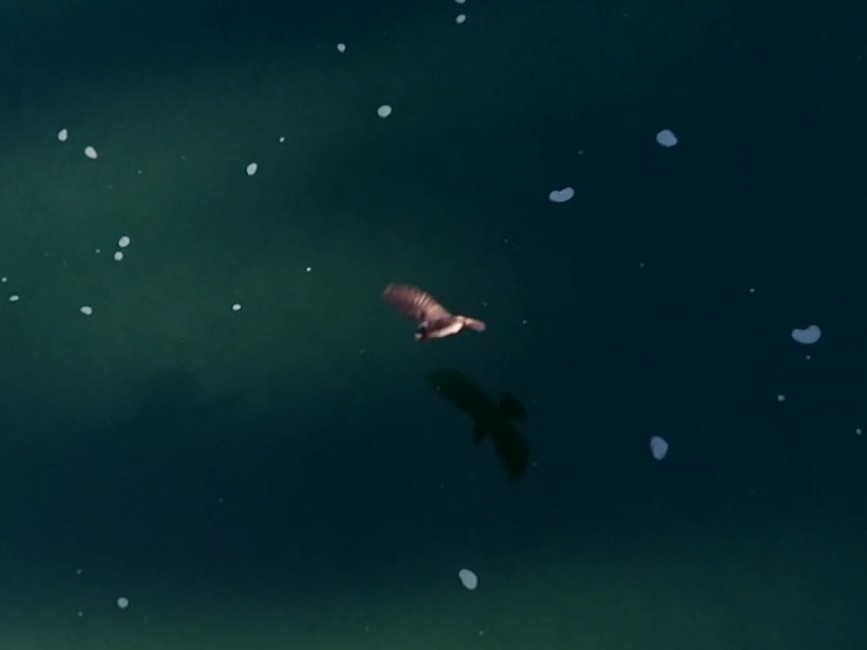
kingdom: Animalia
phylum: Chordata
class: Aves
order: Passeriformes
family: Hirundinidae
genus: Petrochelidon
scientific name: Petrochelidon pyrrhonota
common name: American cliff swallow
